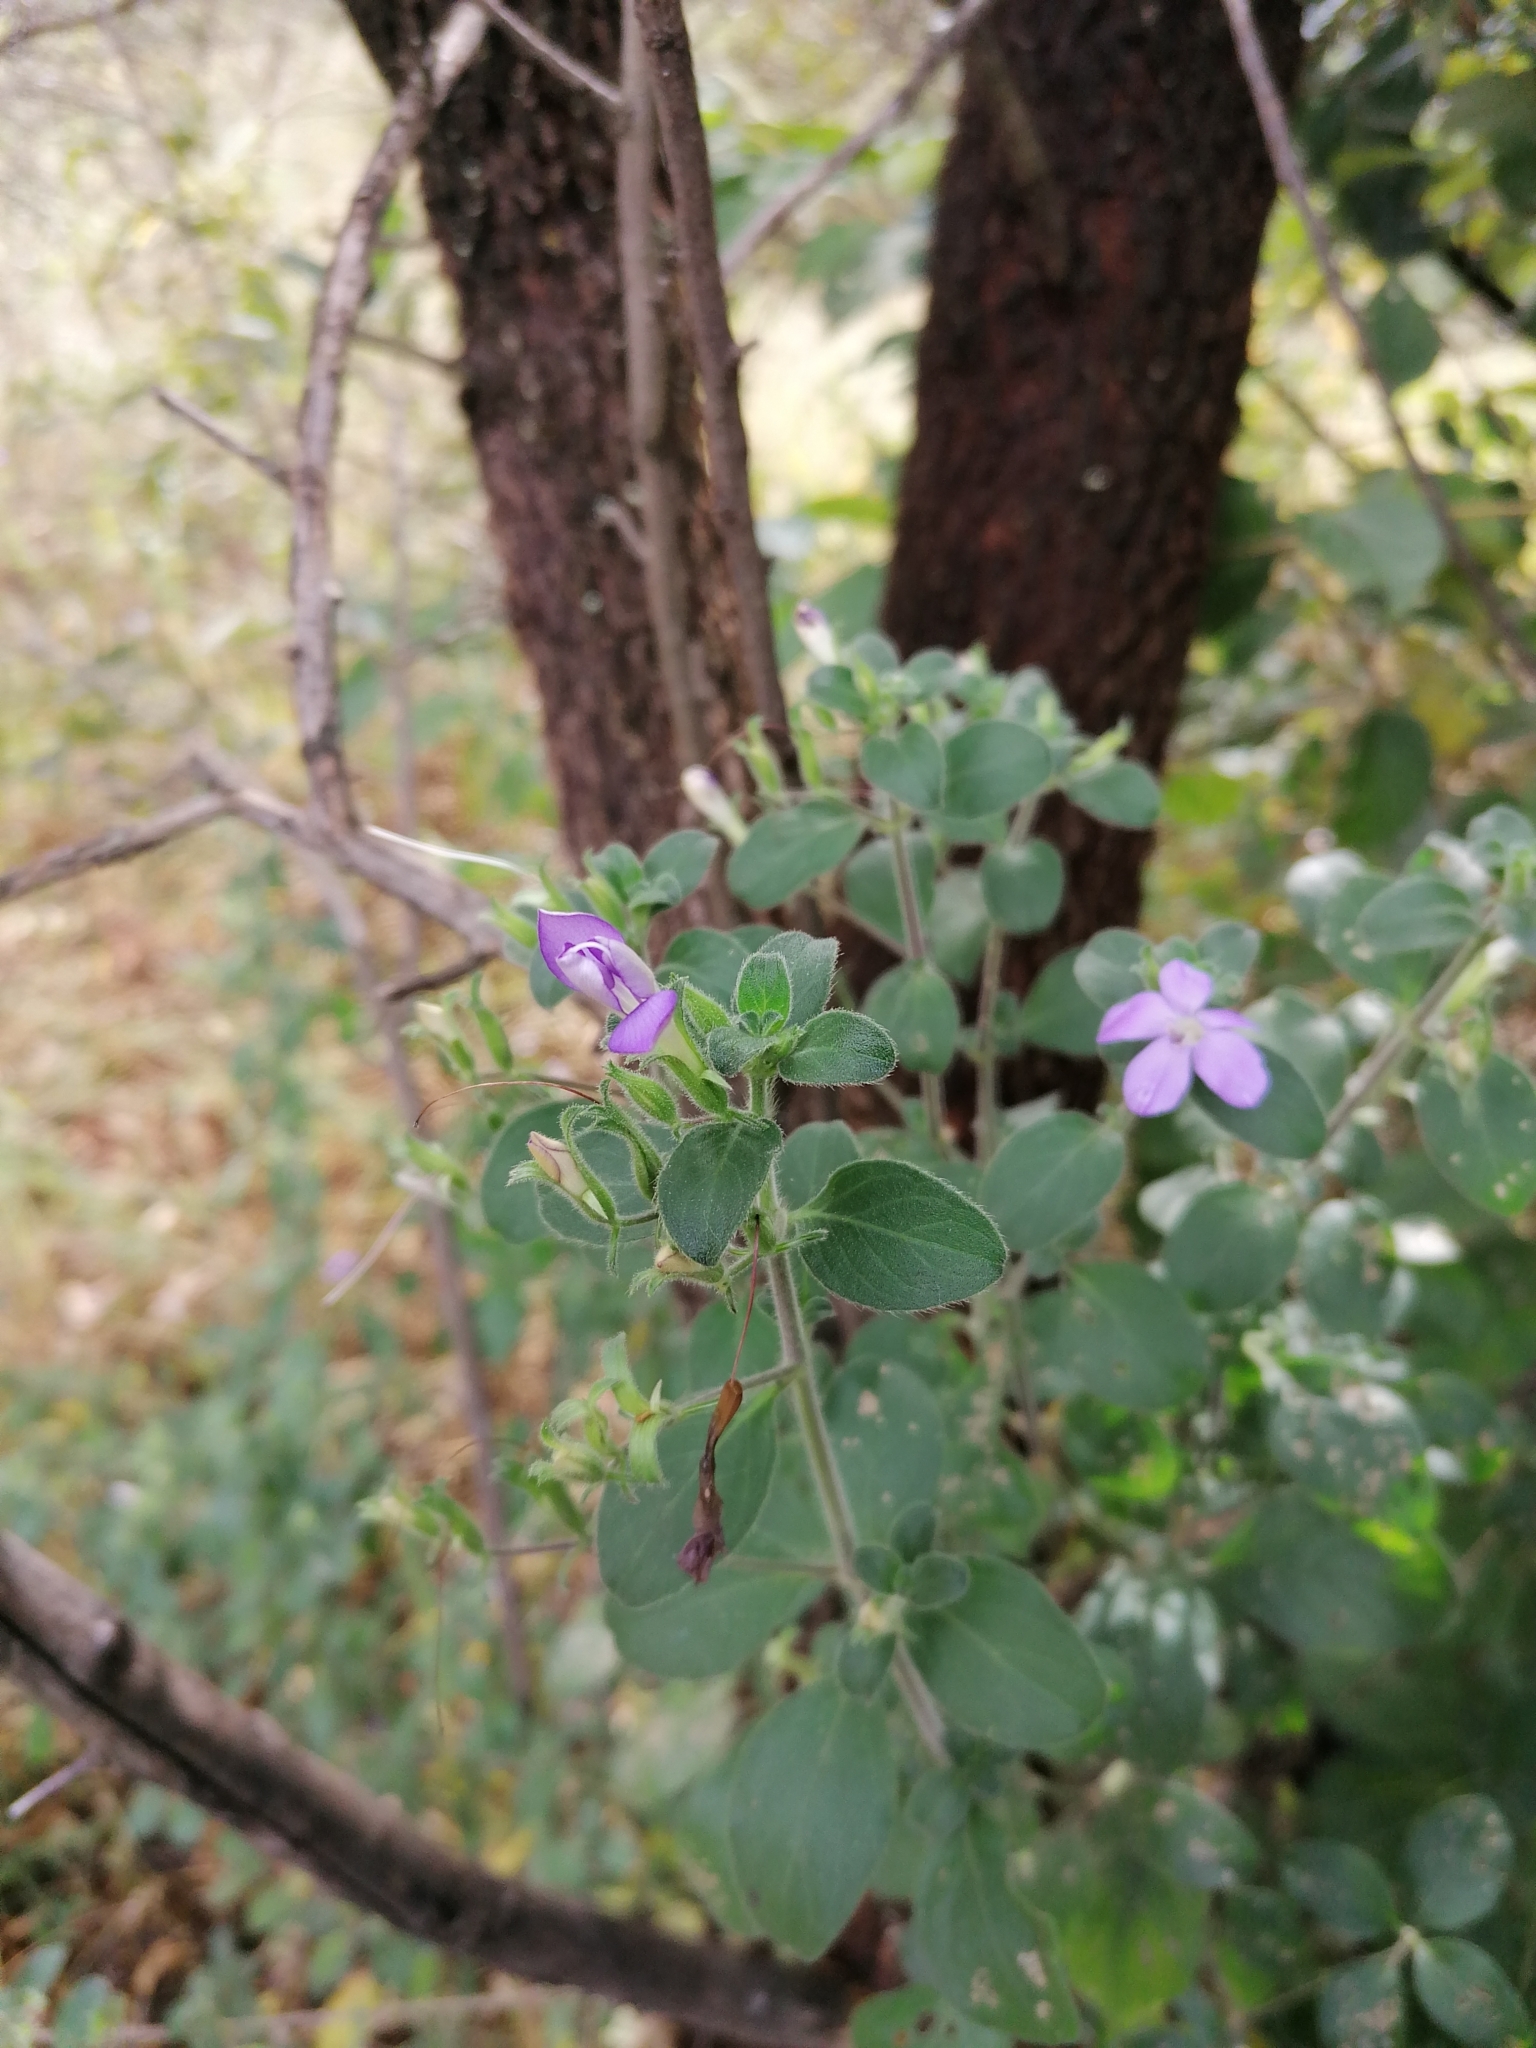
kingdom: Plantae
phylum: Tracheophyta
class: Magnoliopsida
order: Lamiales
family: Acanthaceae
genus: Barleria
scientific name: Barleria obtusa
